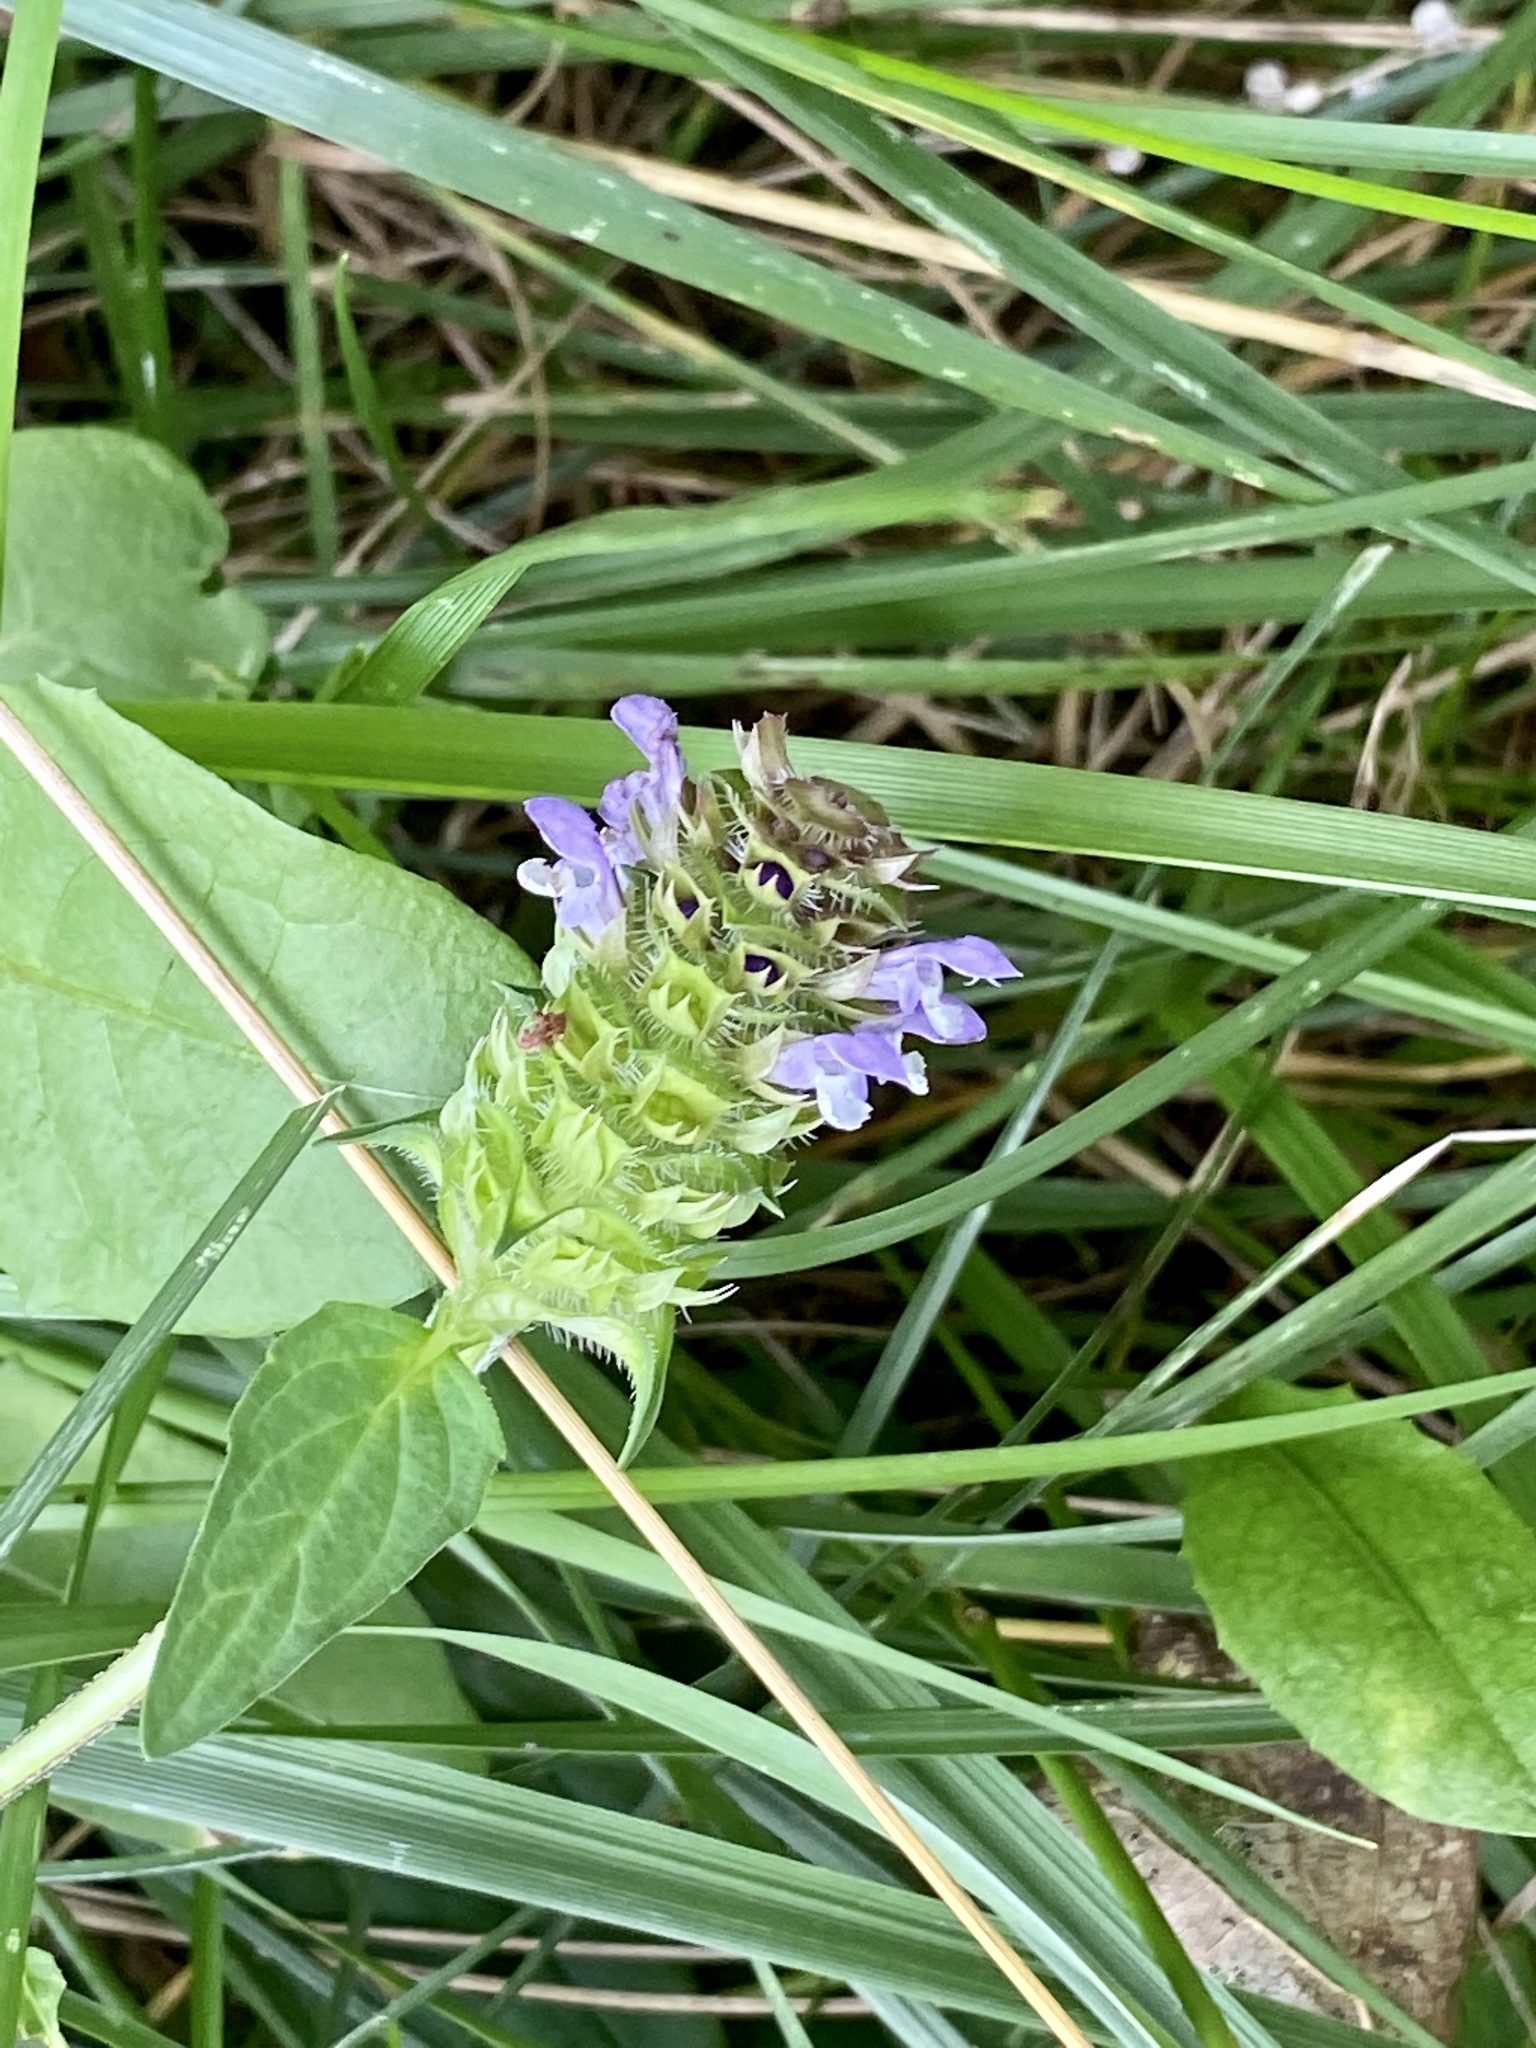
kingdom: Plantae
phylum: Tracheophyta
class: Magnoliopsida
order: Lamiales
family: Lamiaceae
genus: Prunella
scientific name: Prunella vulgaris
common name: Heal-all
